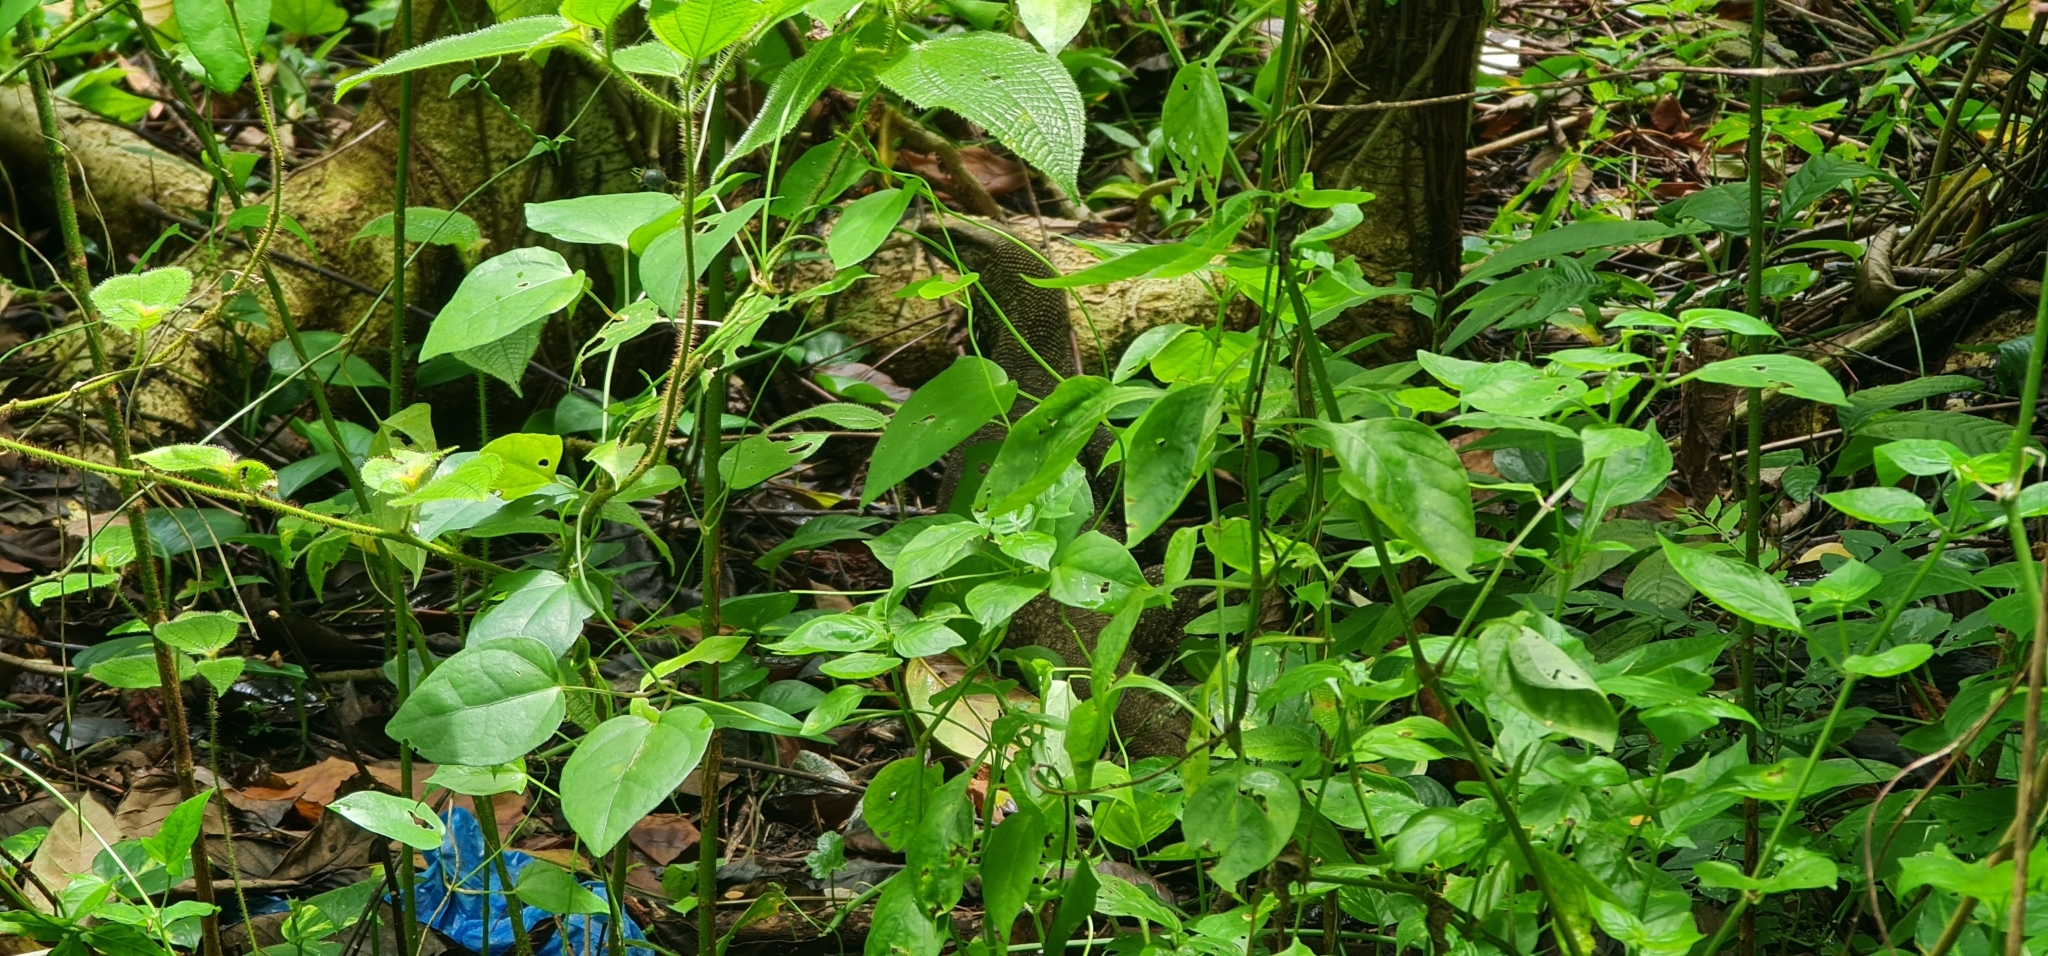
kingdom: Animalia
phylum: Chordata
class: Squamata
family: Varanidae
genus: Varanus
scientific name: Varanus nebulosus
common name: Clouded monitor
